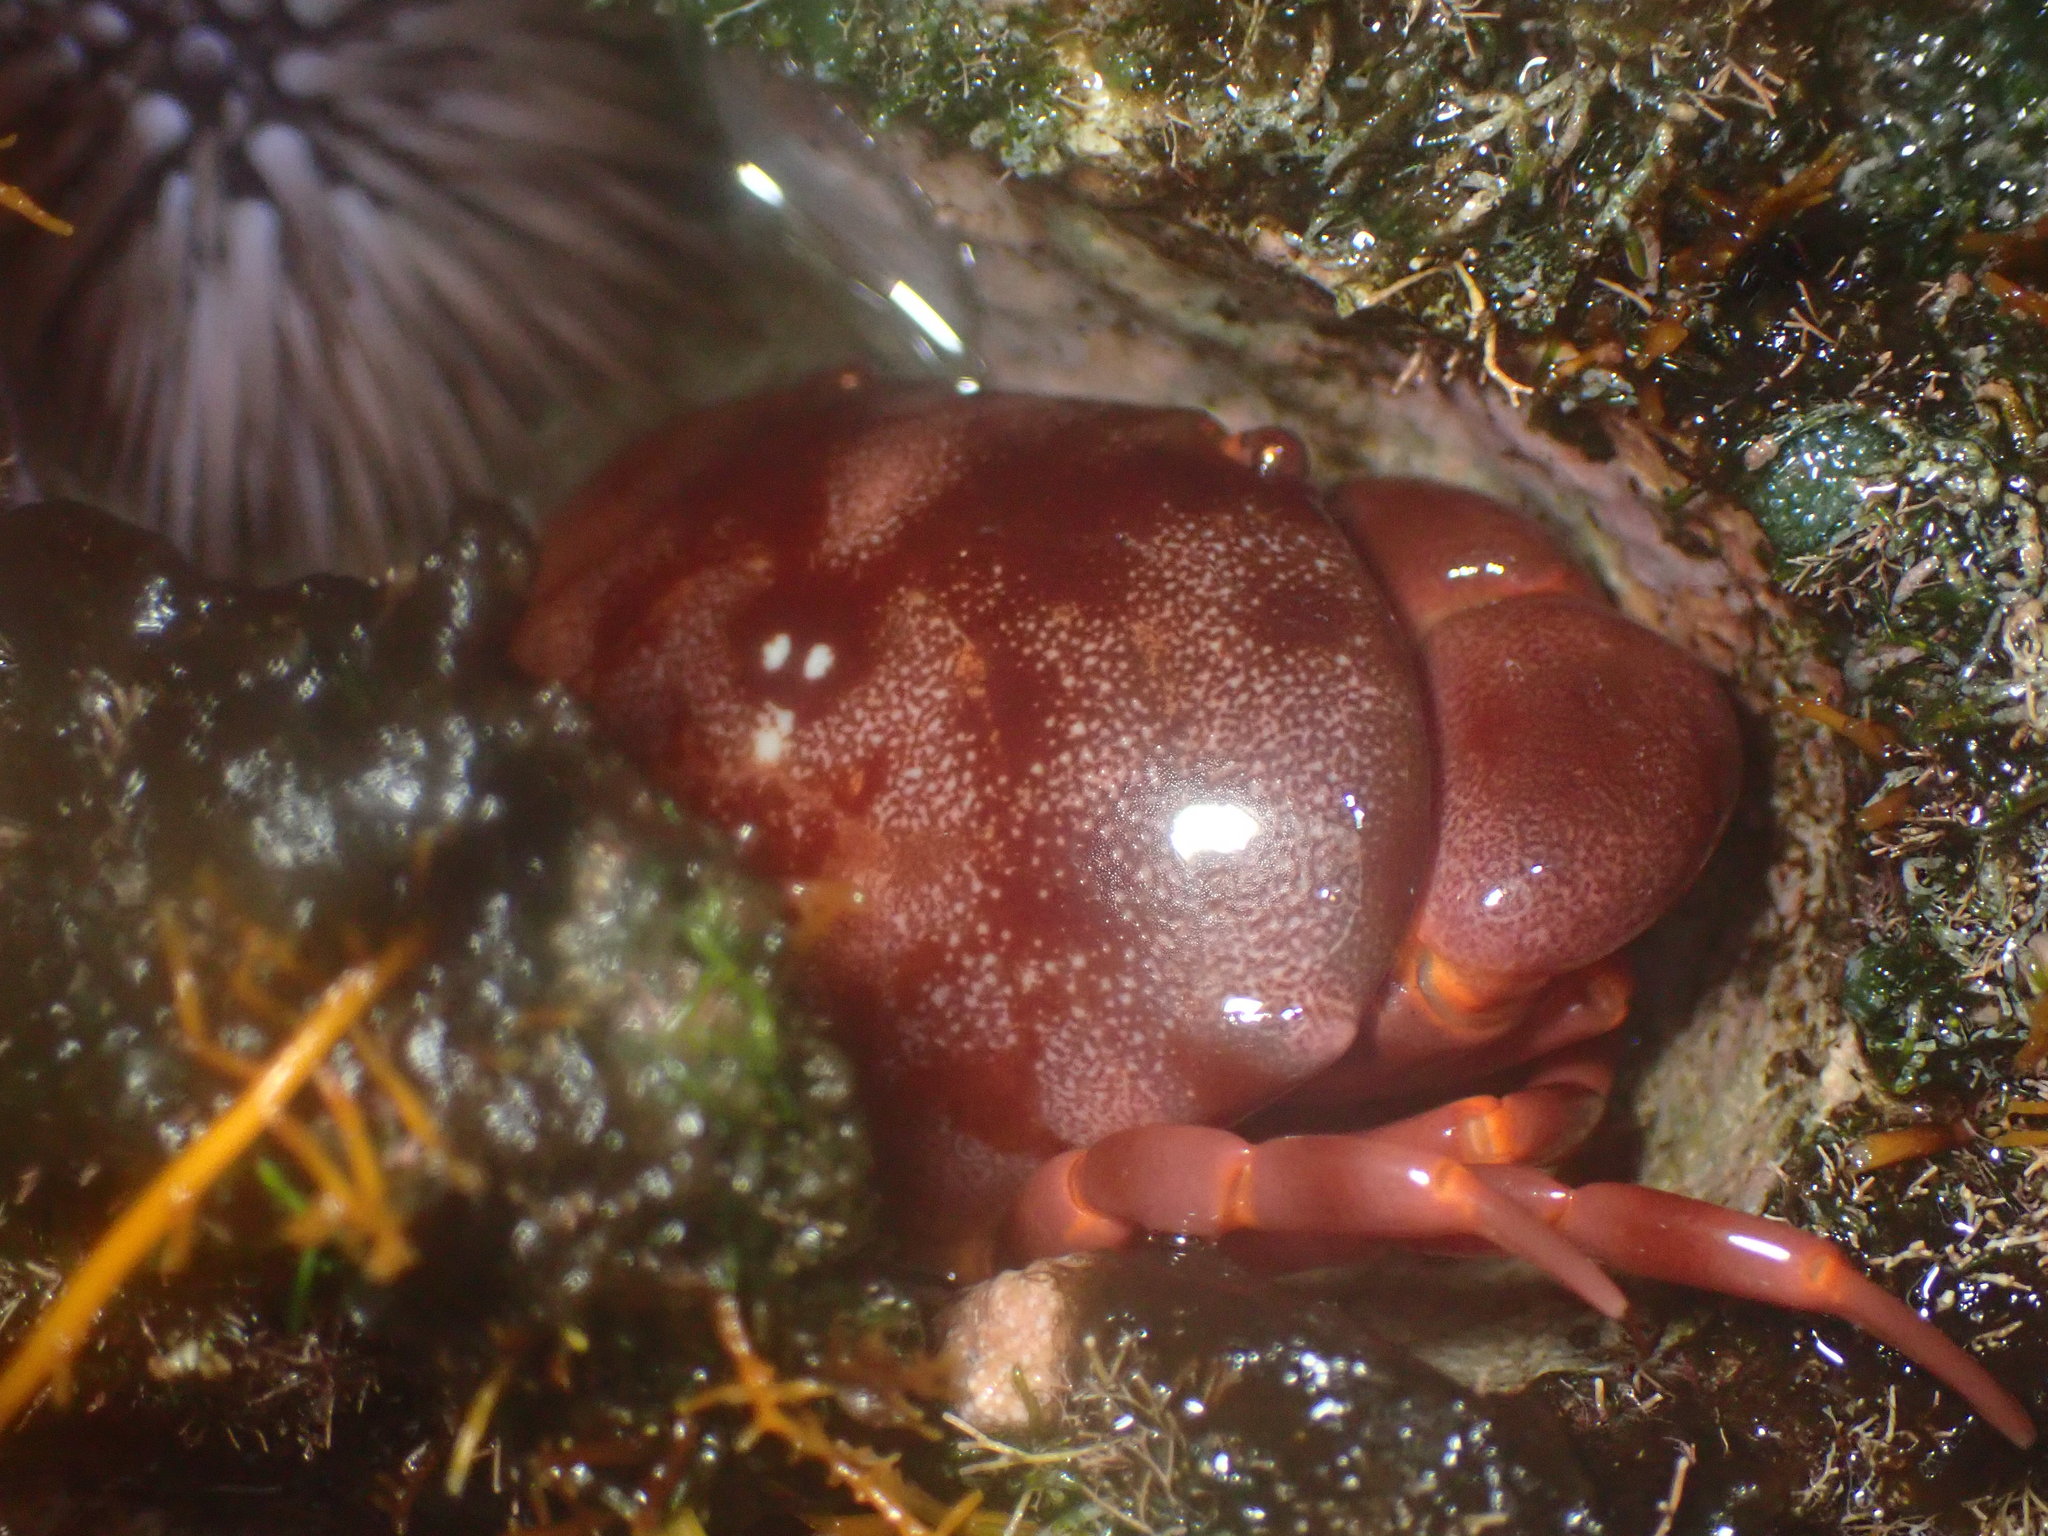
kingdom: Animalia
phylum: Arthropoda
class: Malacostraca
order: Decapoda
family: Carpiliidae
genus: Carpilius
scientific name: Carpilius convexus
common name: Convex reef crab
